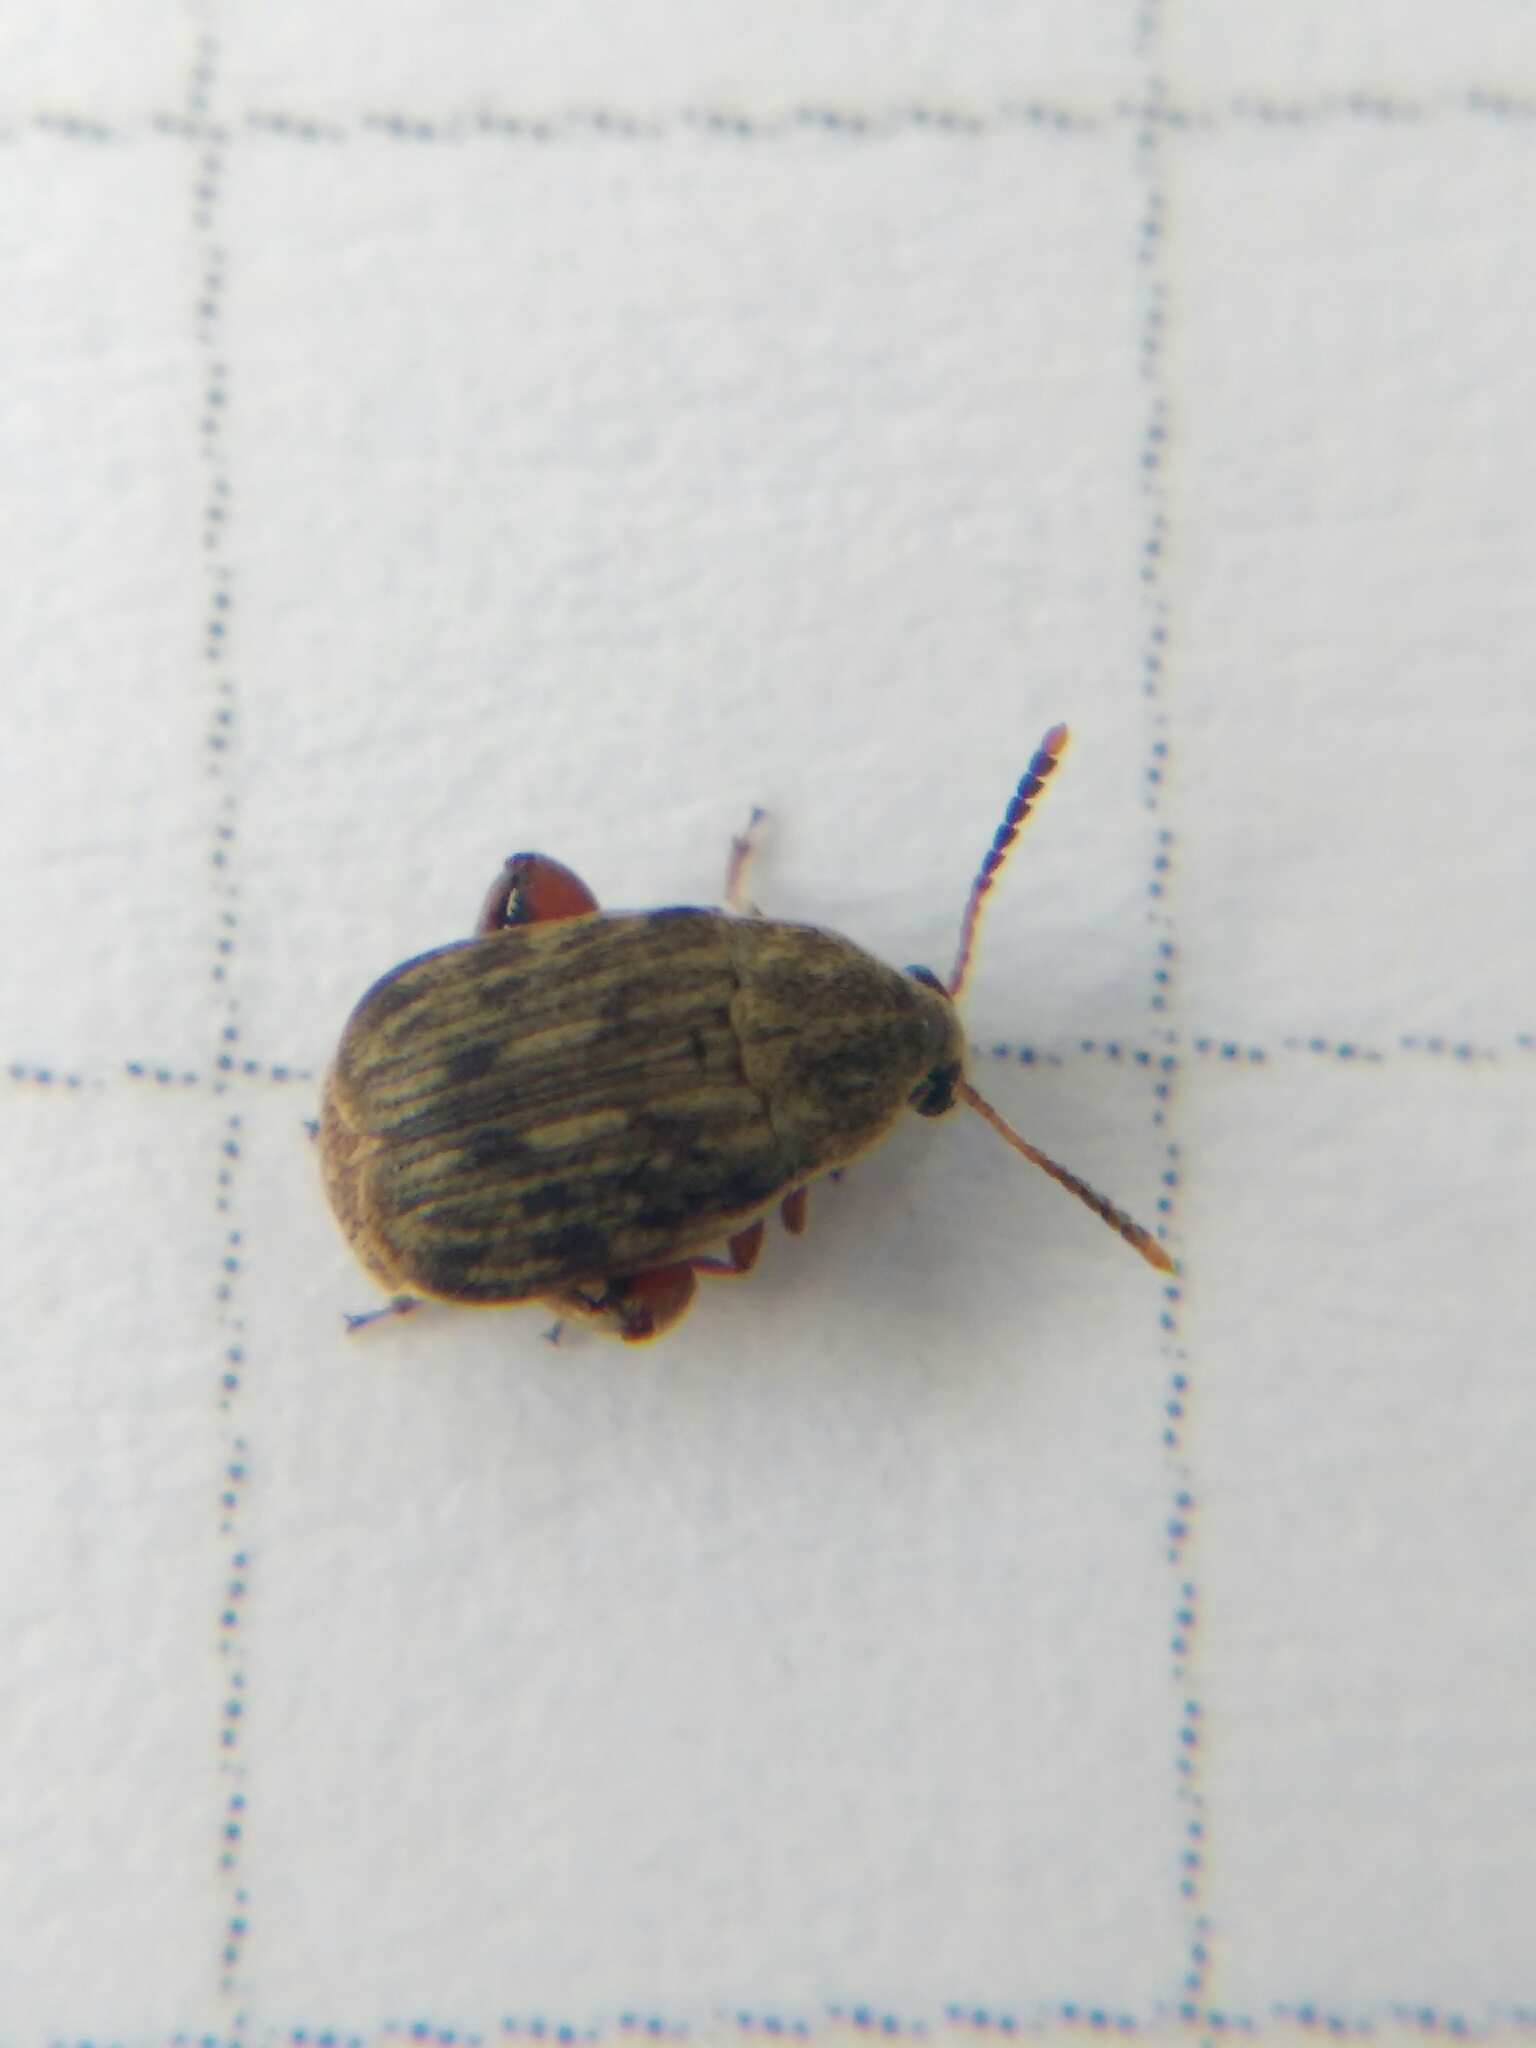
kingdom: Animalia
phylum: Arthropoda
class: Insecta
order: Coleoptera
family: Chrysomelidae
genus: Acanthoscelides
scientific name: Acanthoscelides obtectus
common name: Bean weevil
